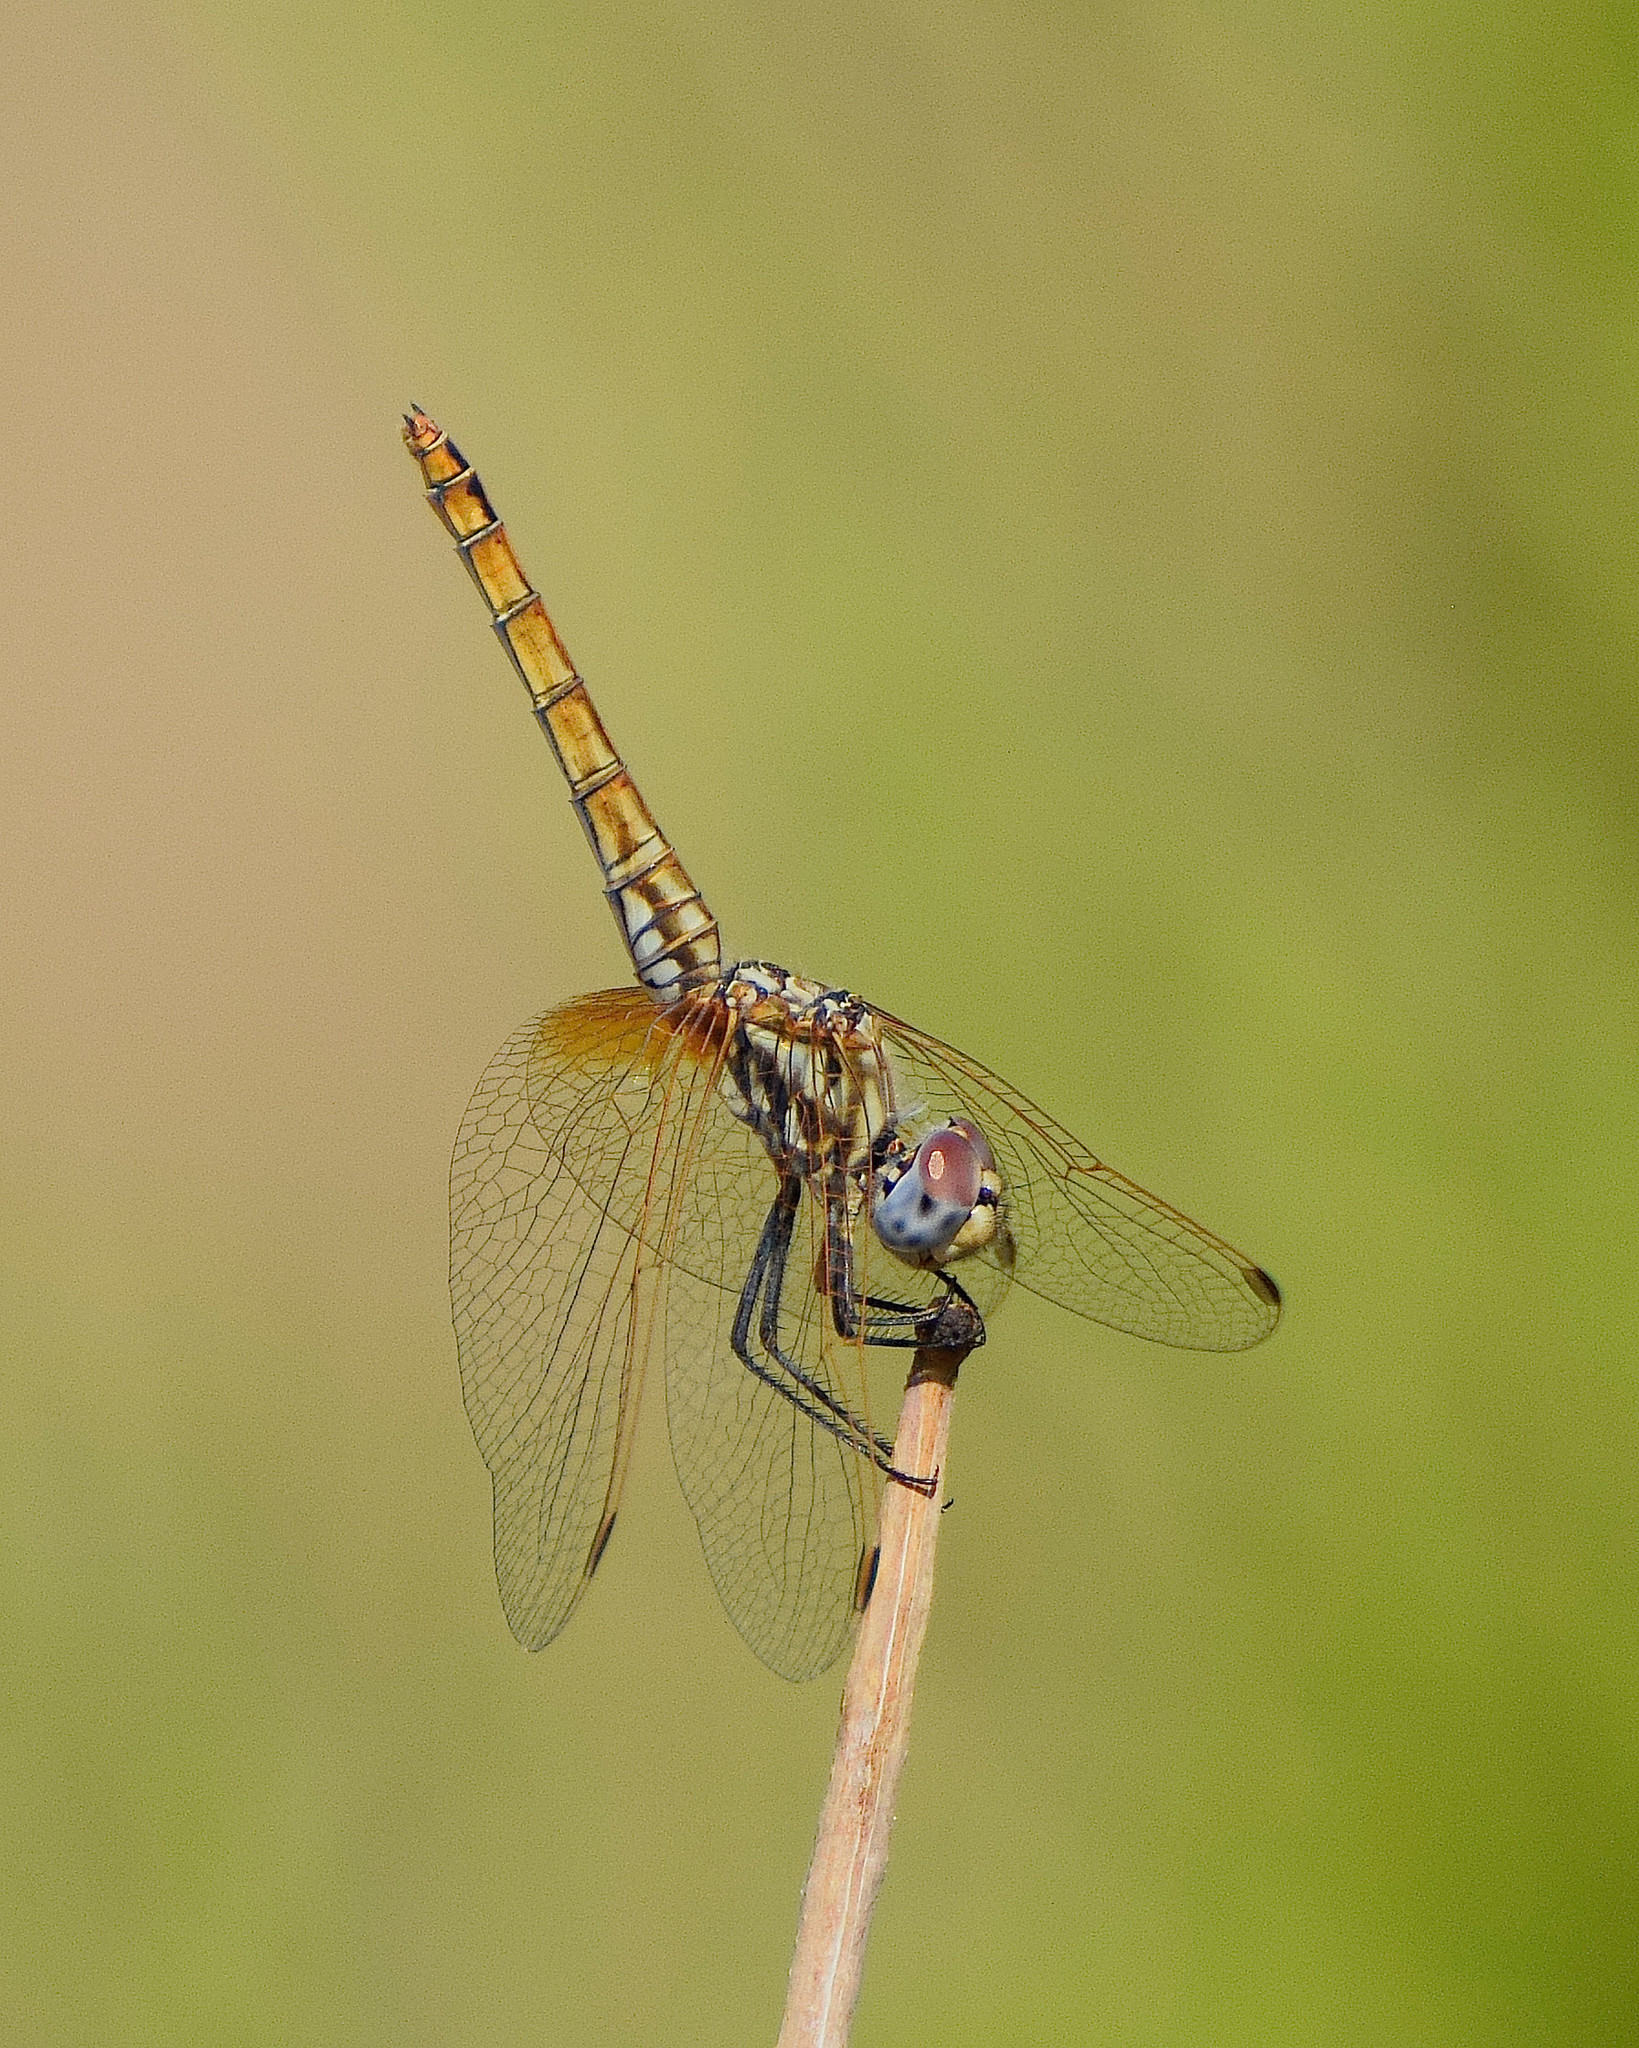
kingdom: Animalia
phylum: Arthropoda
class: Insecta
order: Odonata
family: Libellulidae
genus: Trithemis
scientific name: Trithemis annulata
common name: Violet dropwing
